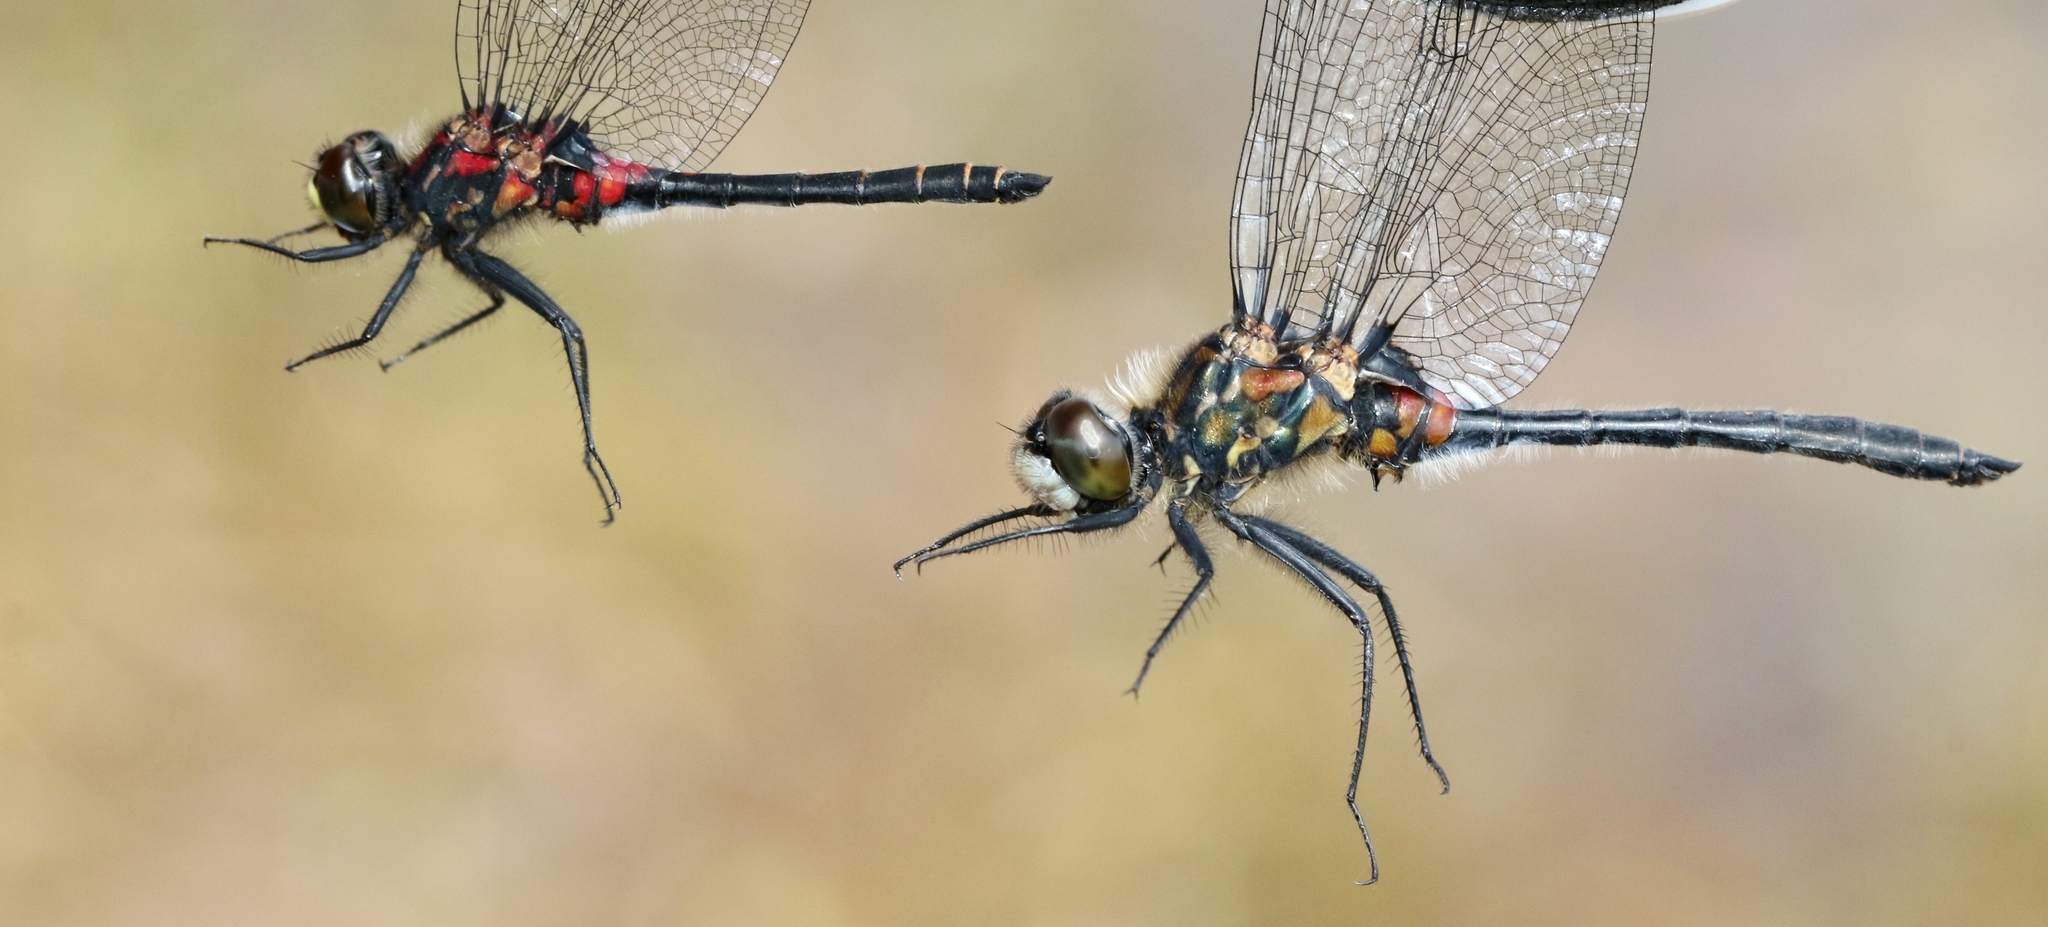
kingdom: Animalia
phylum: Arthropoda
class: Insecta
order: Odonata
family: Libellulidae
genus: Leucorrhinia
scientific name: Leucorrhinia glacialis
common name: Crimson-ringed whiteface
